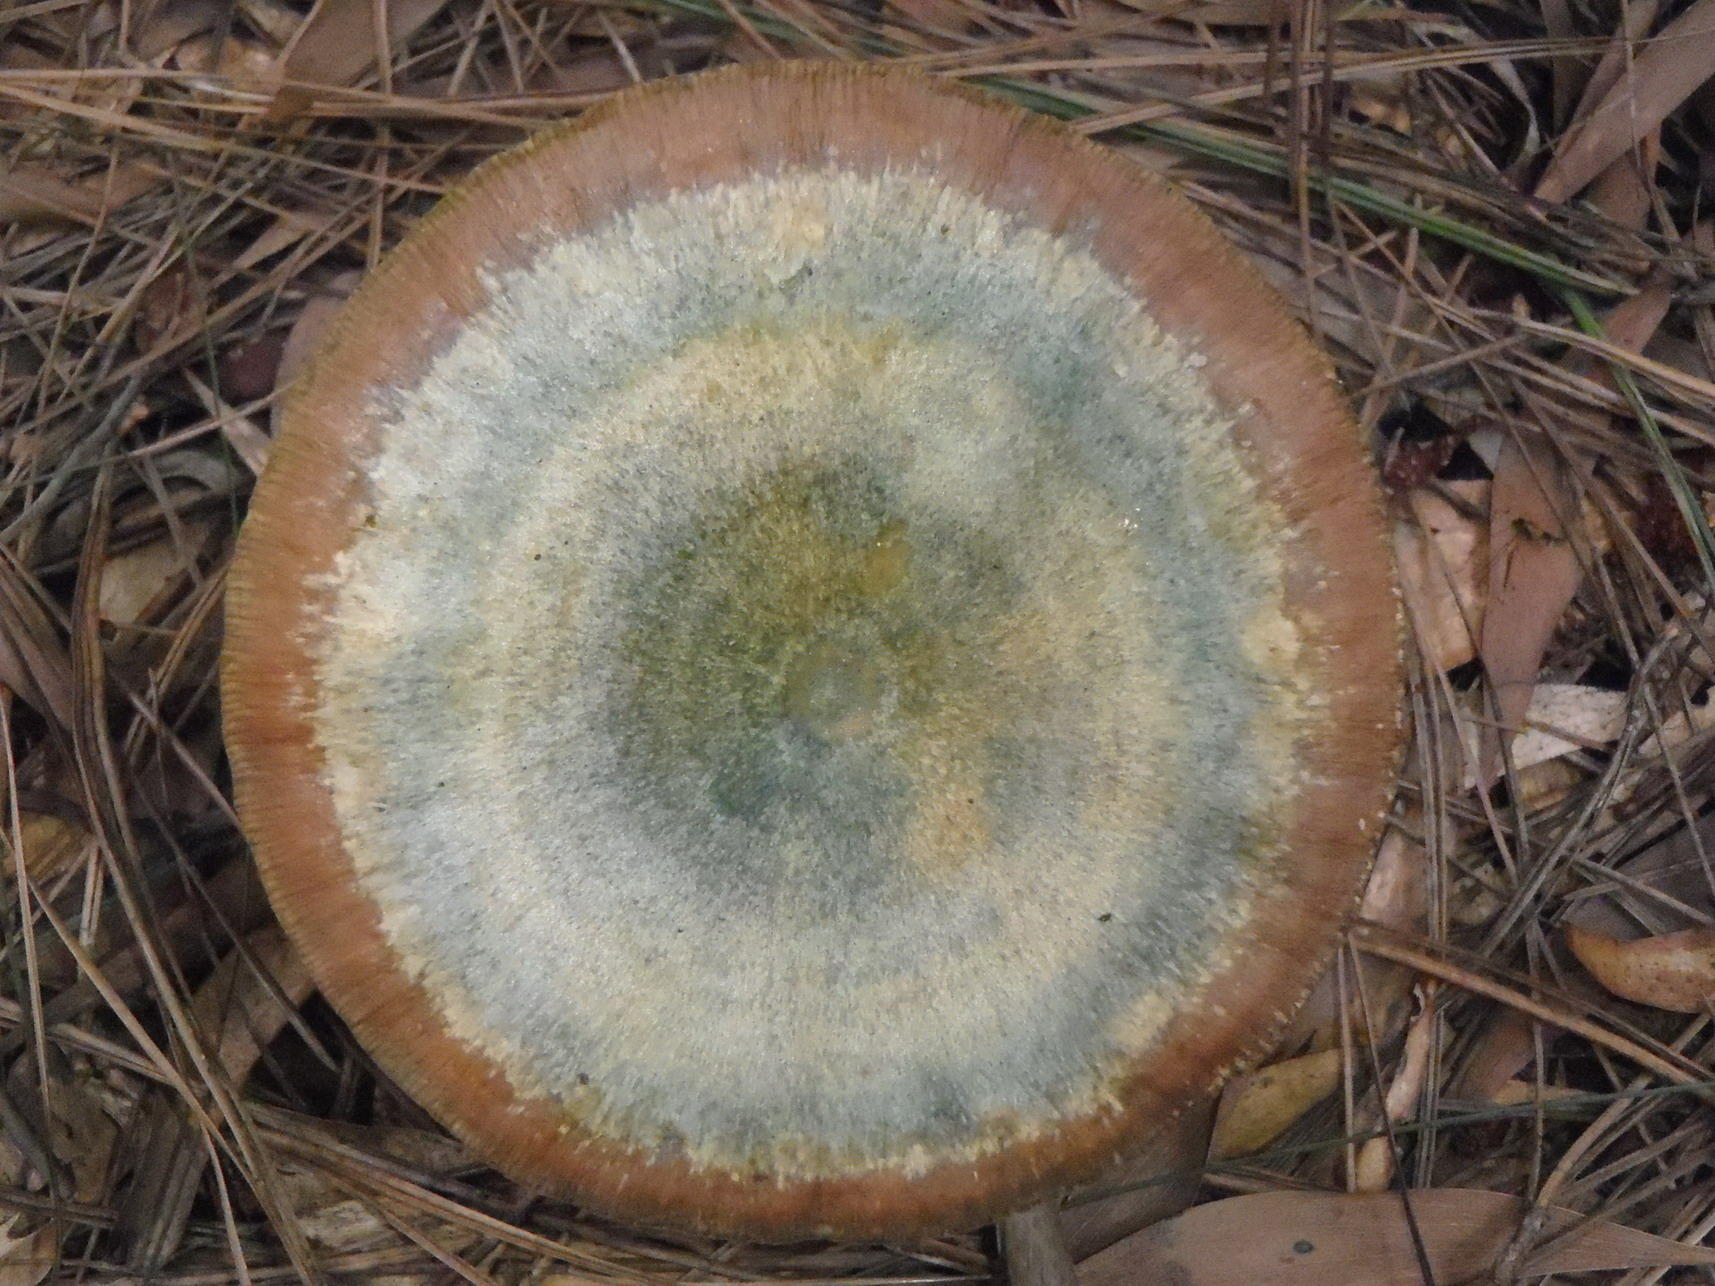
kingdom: Fungi
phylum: Basidiomycota
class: Agaricomycetes
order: Russulales
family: Russulaceae
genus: Lactarius
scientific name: Lactarius deliciosus
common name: Saffron milk-cap
